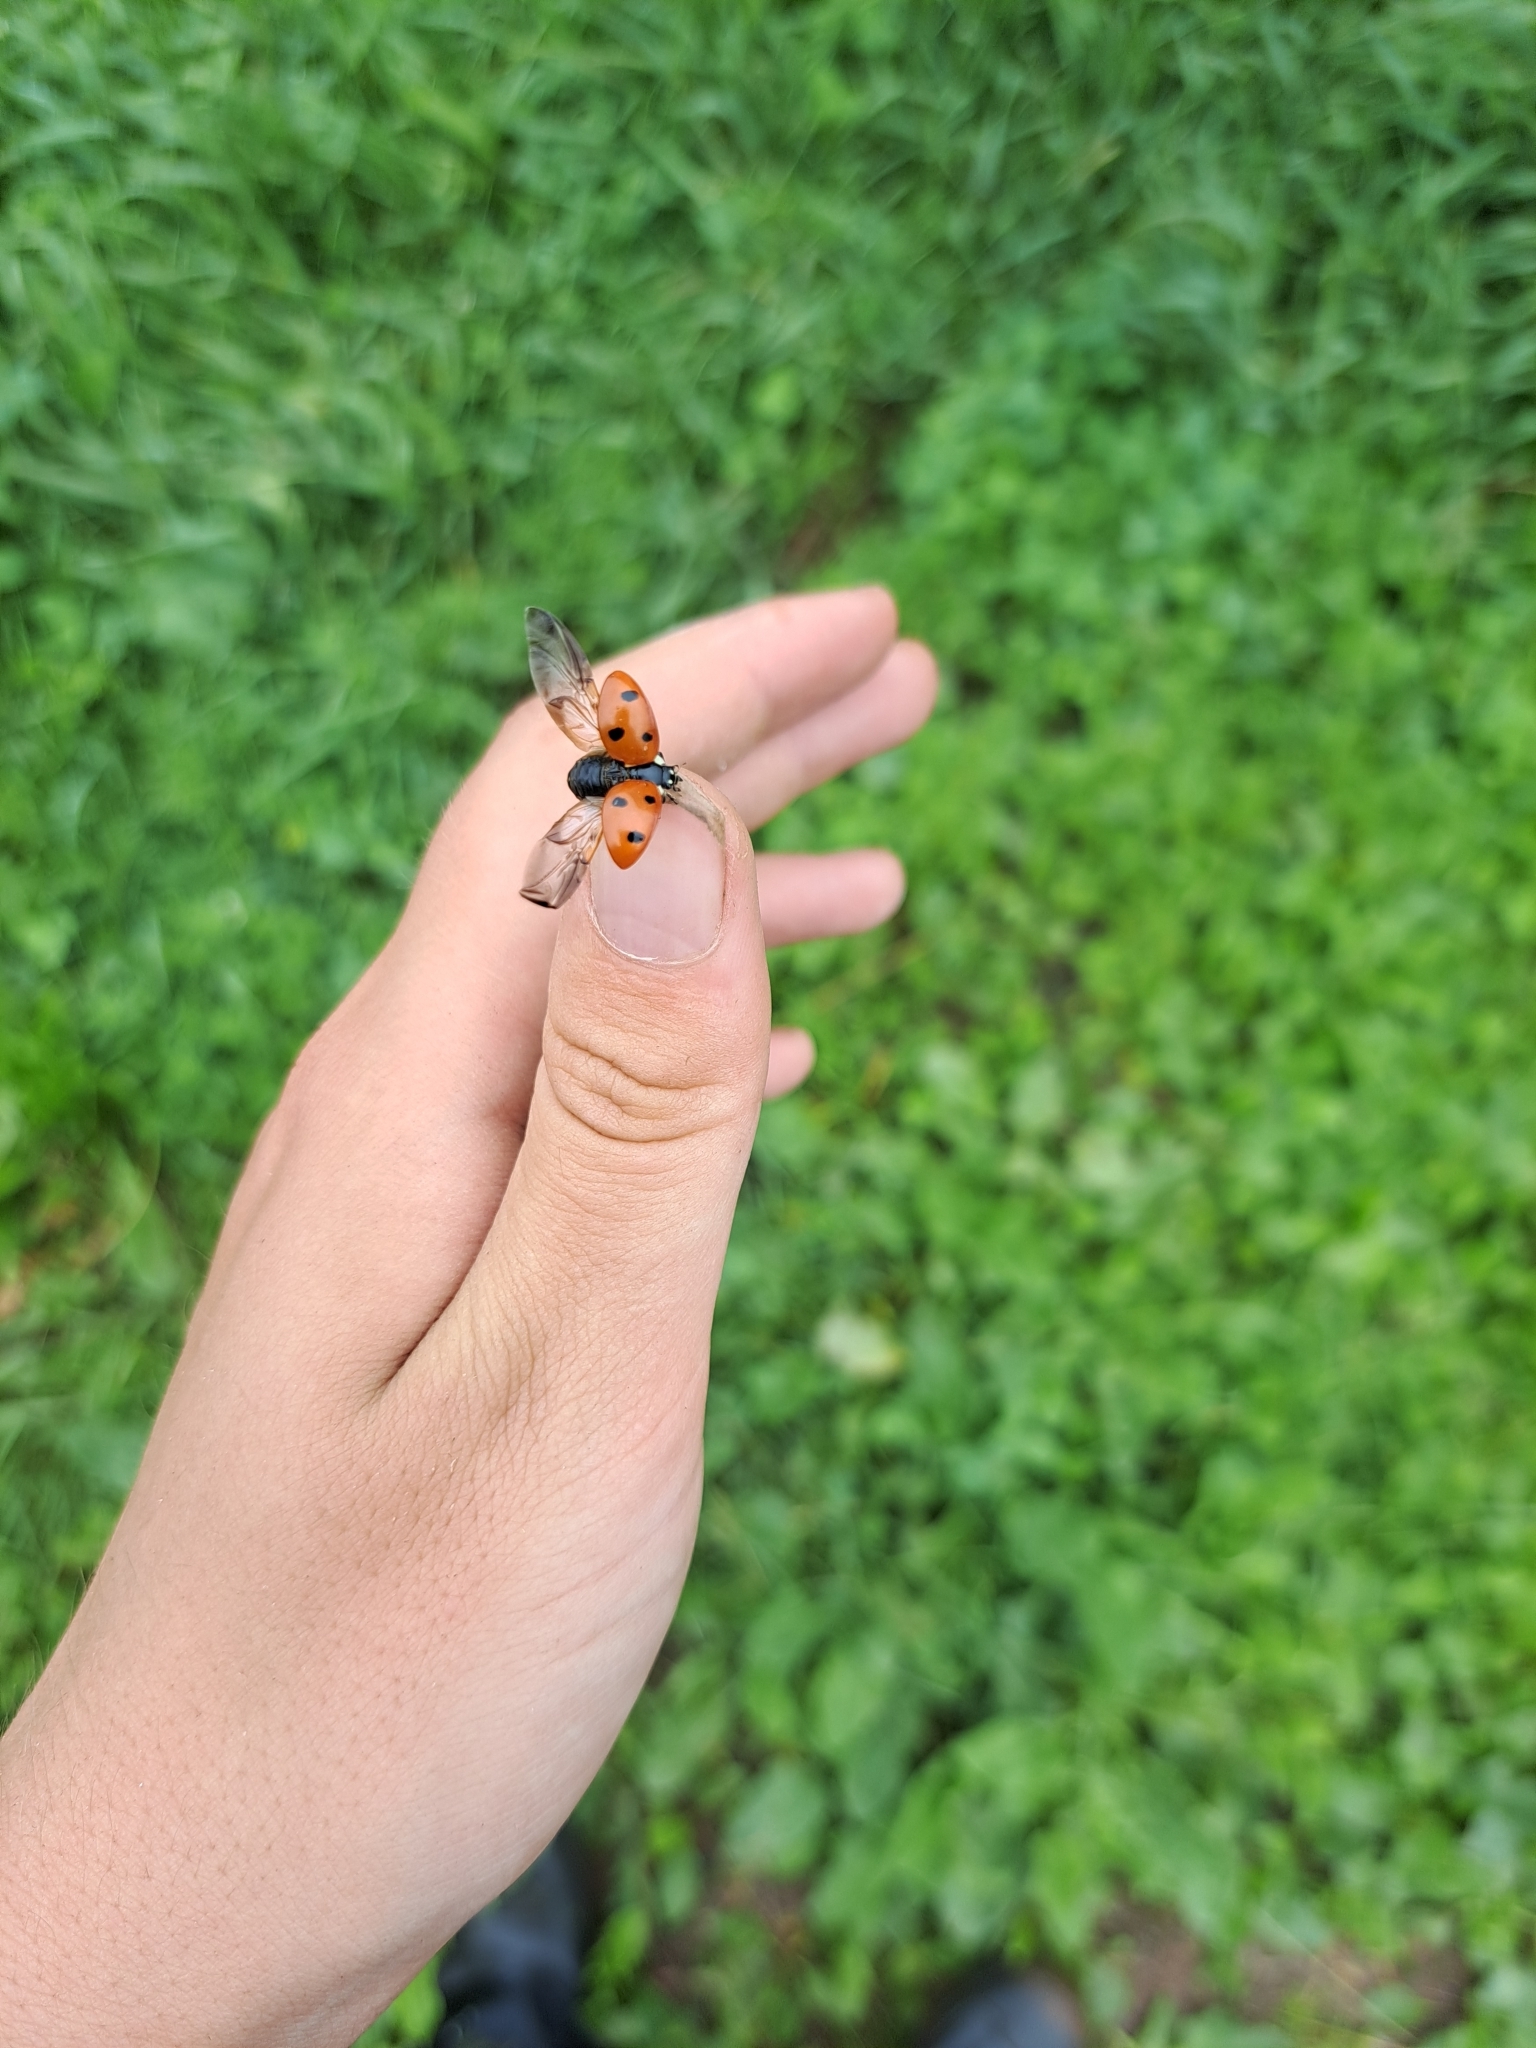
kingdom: Animalia
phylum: Arthropoda
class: Insecta
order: Coleoptera
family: Coccinellidae
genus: Coccinella
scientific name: Coccinella septempunctata
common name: Sevenspotted lady beetle
